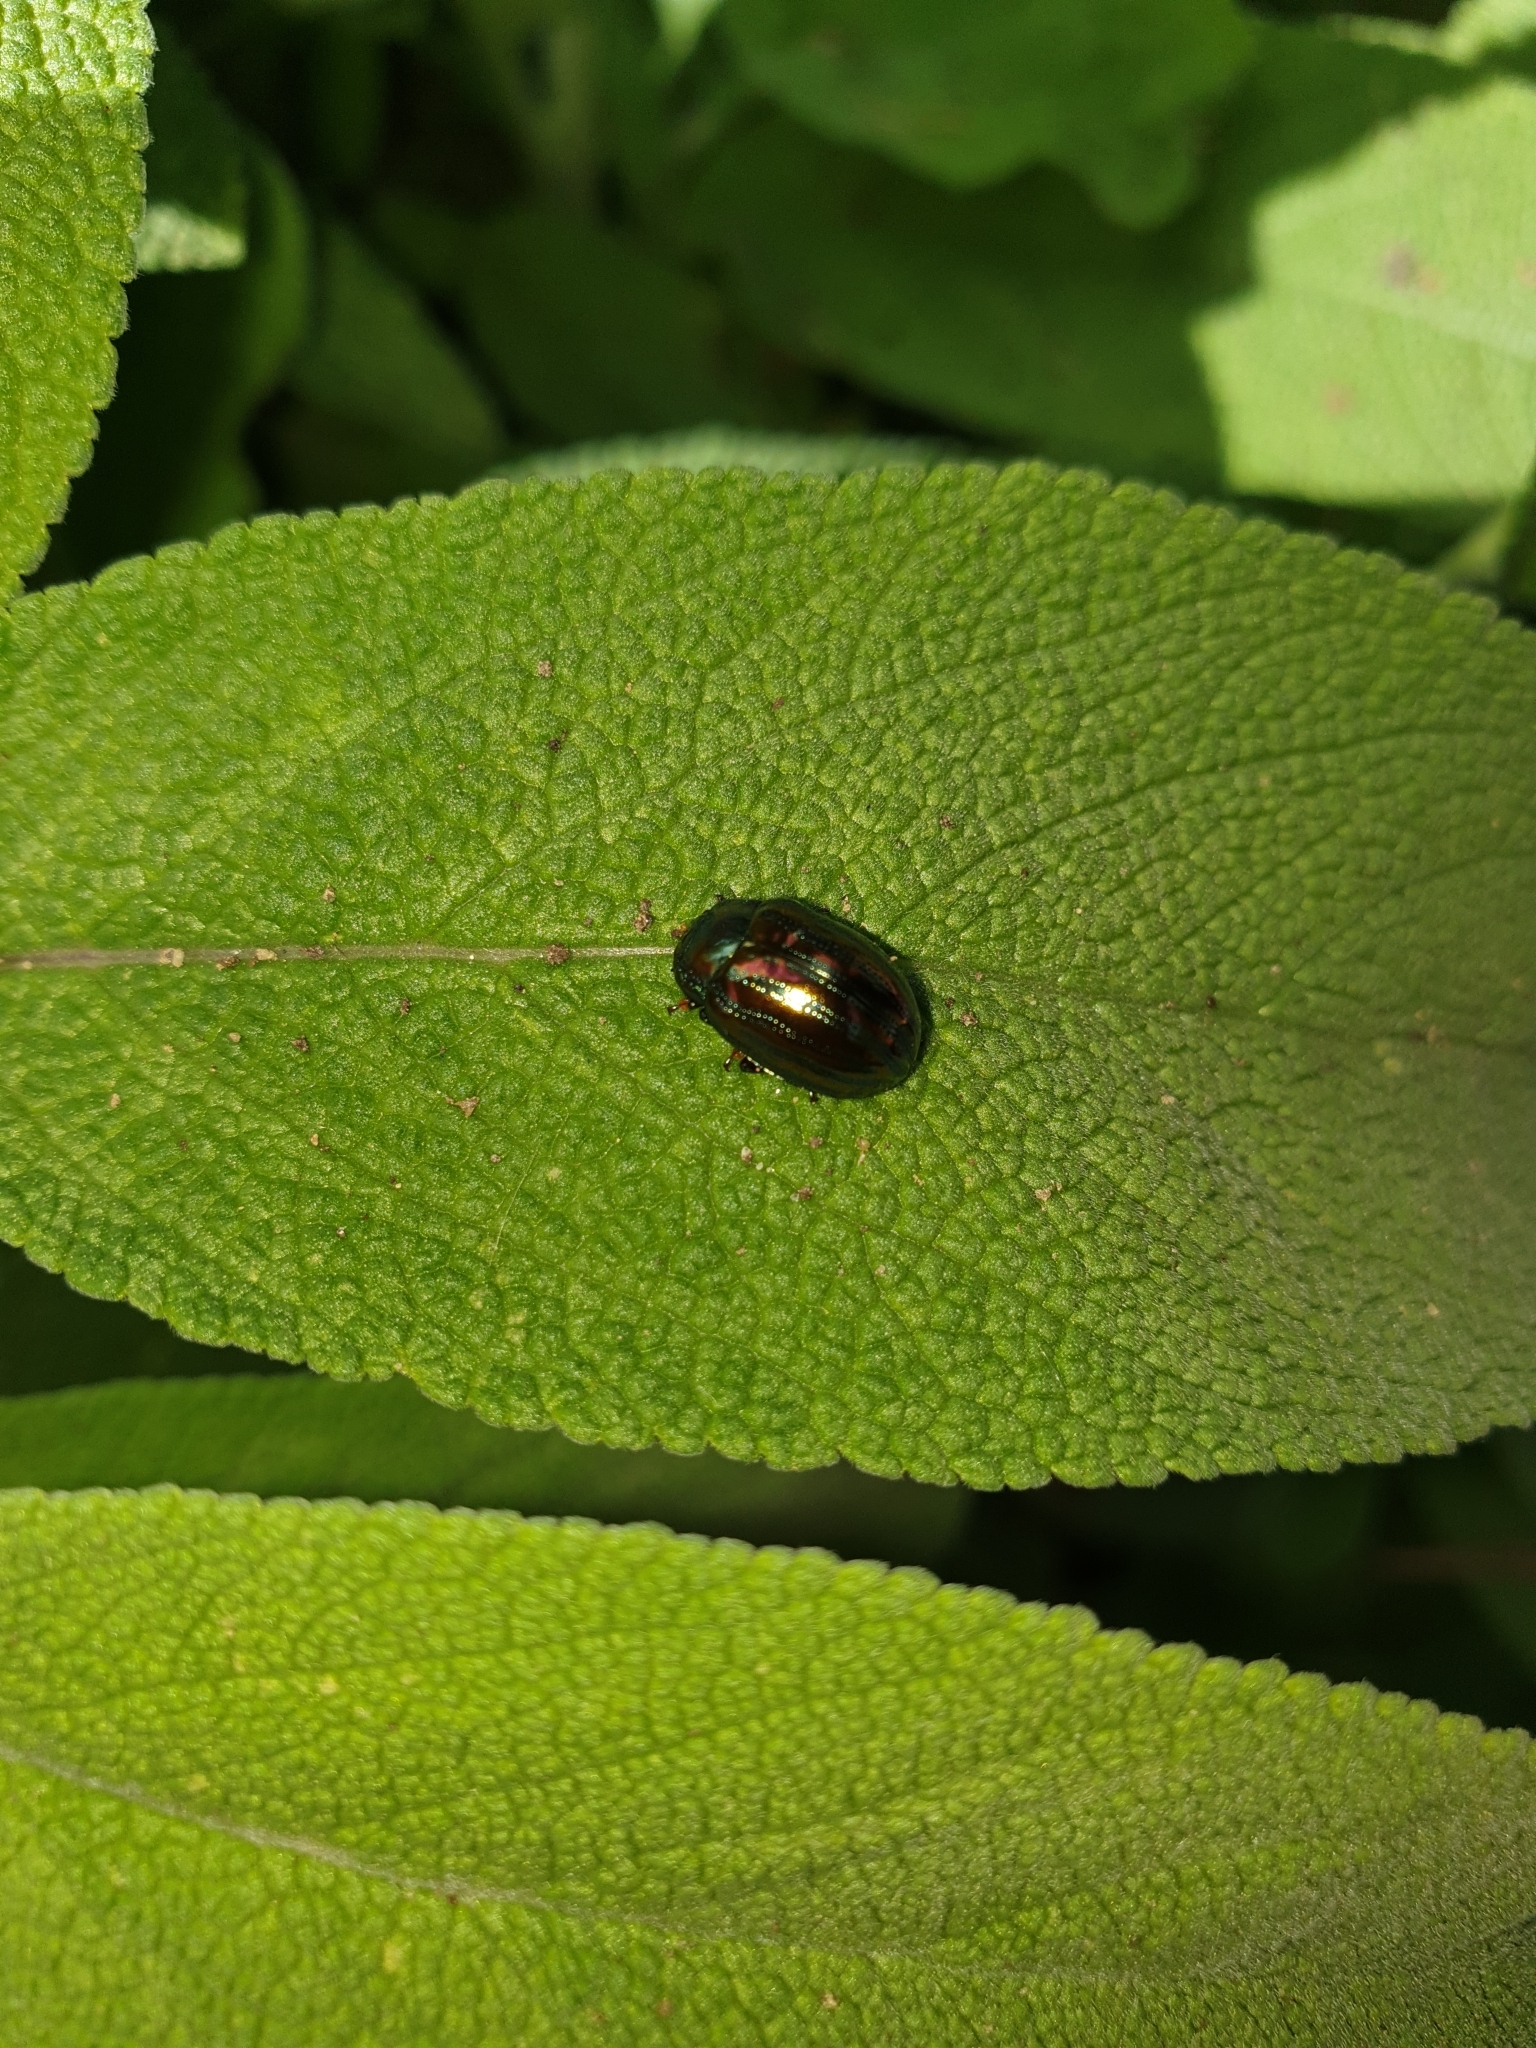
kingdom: Animalia
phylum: Arthropoda
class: Insecta
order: Coleoptera
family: Chrysomelidae
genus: Chrysolina
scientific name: Chrysolina americana
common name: Rosemary beetle
